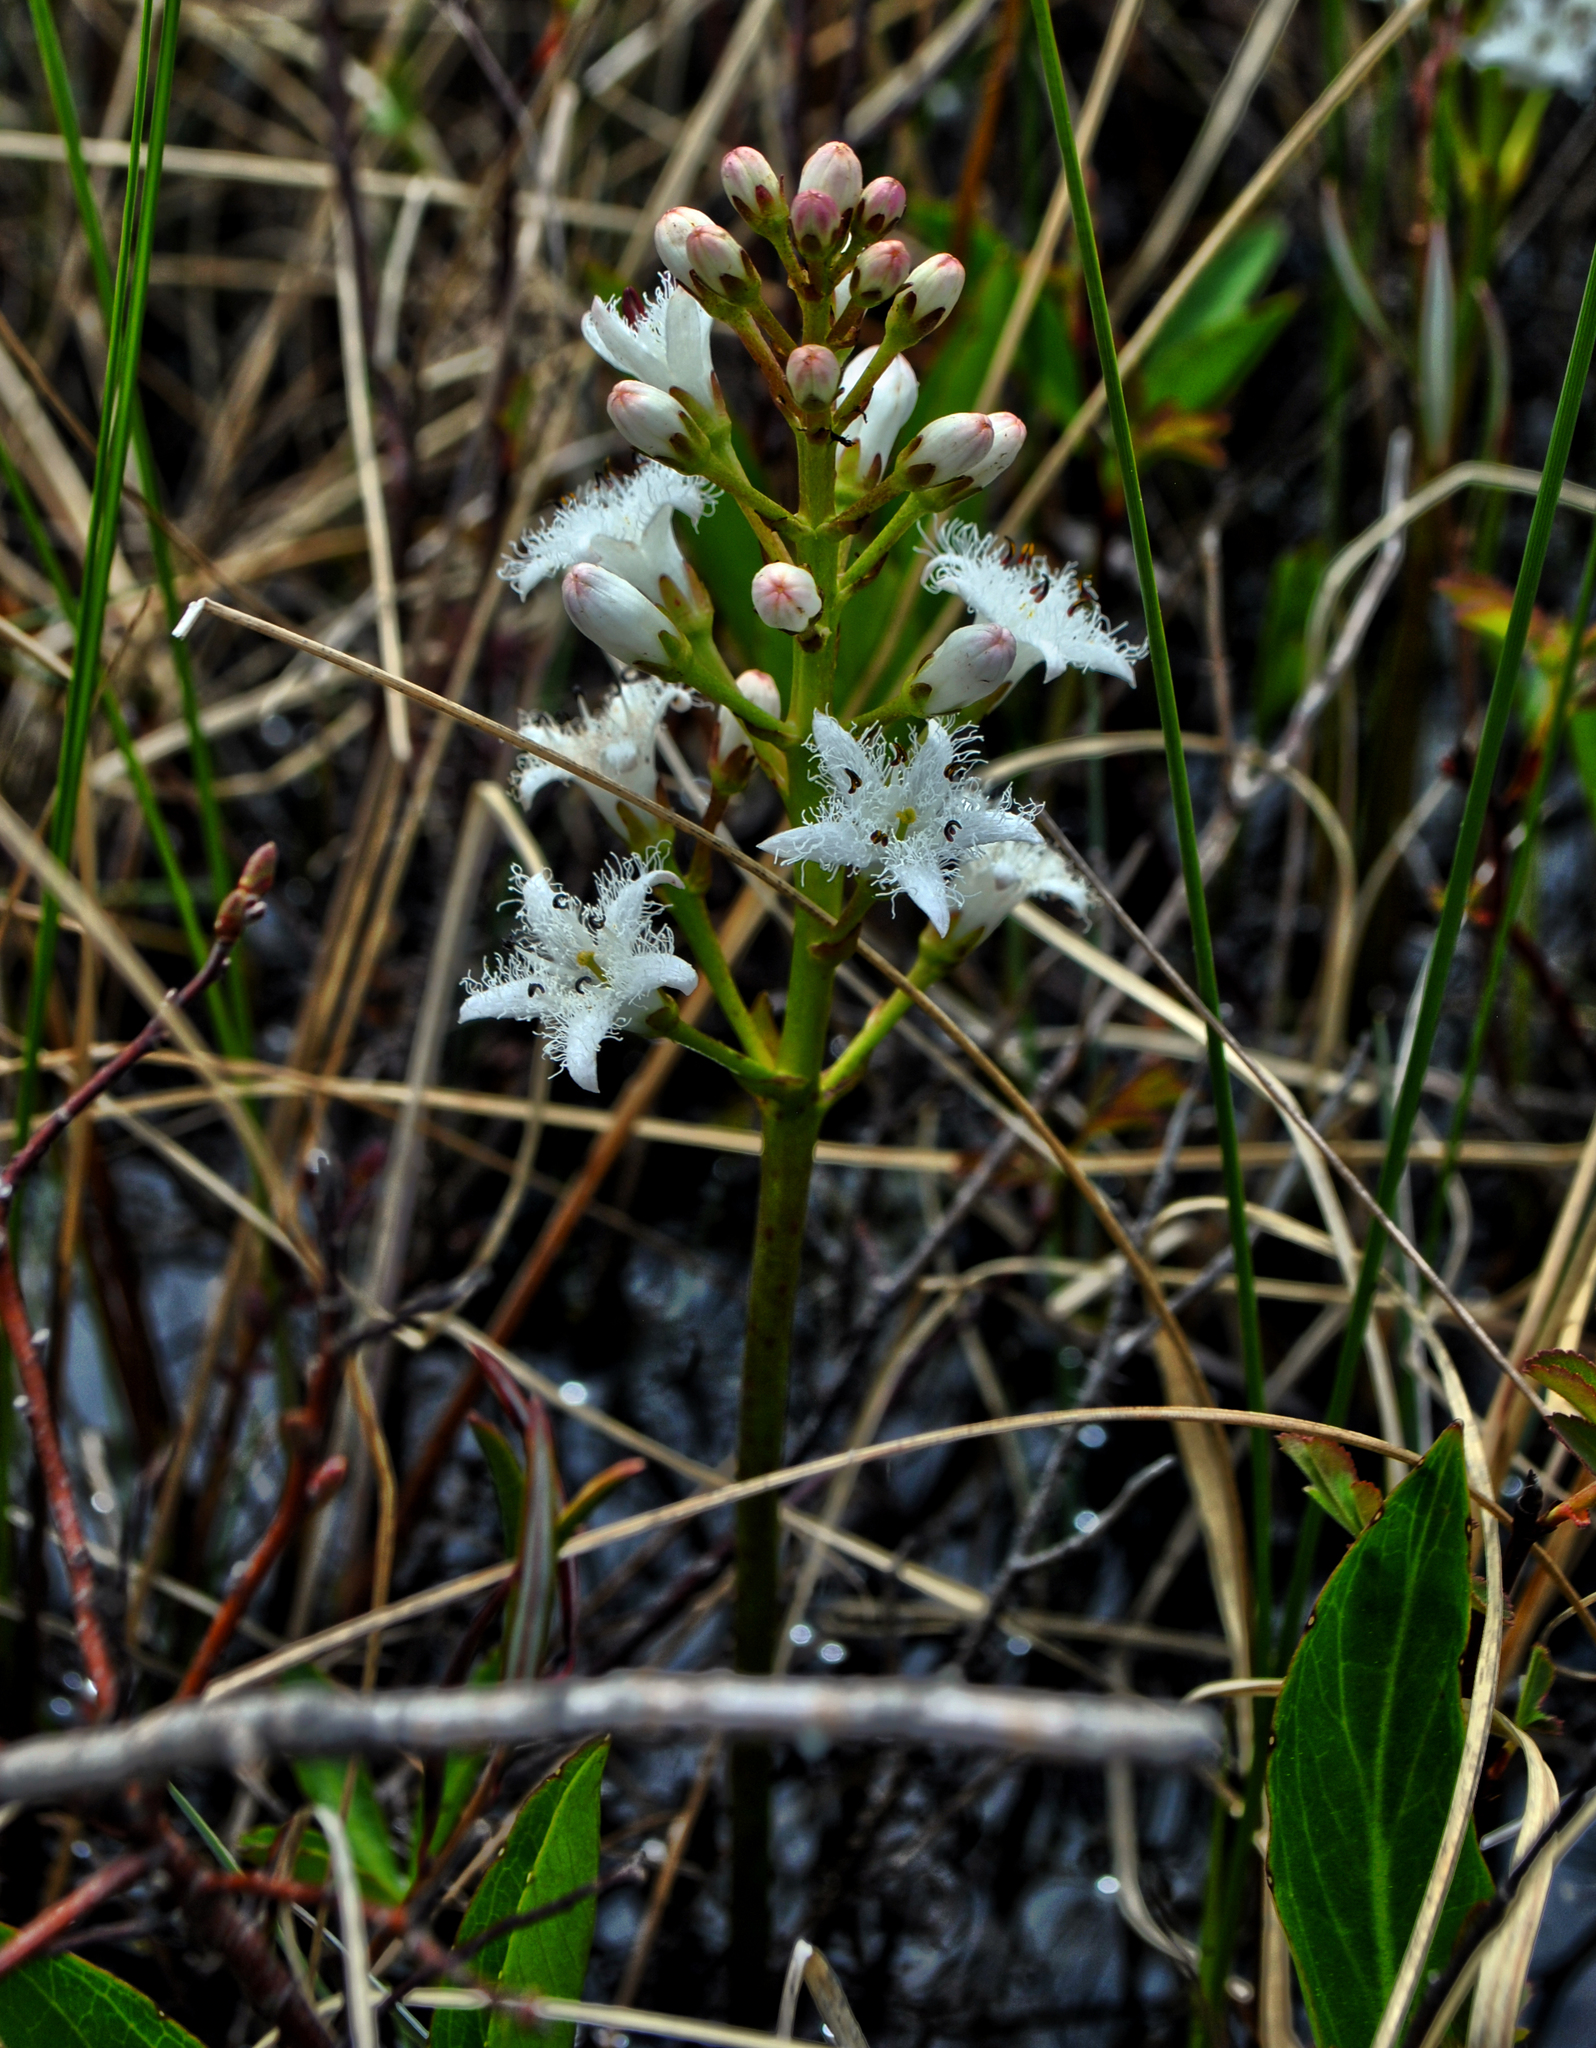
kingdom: Plantae
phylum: Tracheophyta
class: Magnoliopsida
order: Asterales
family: Menyanthaceae
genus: Menyanthes
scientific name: Menyanthes trifoliata
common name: Bogbean
